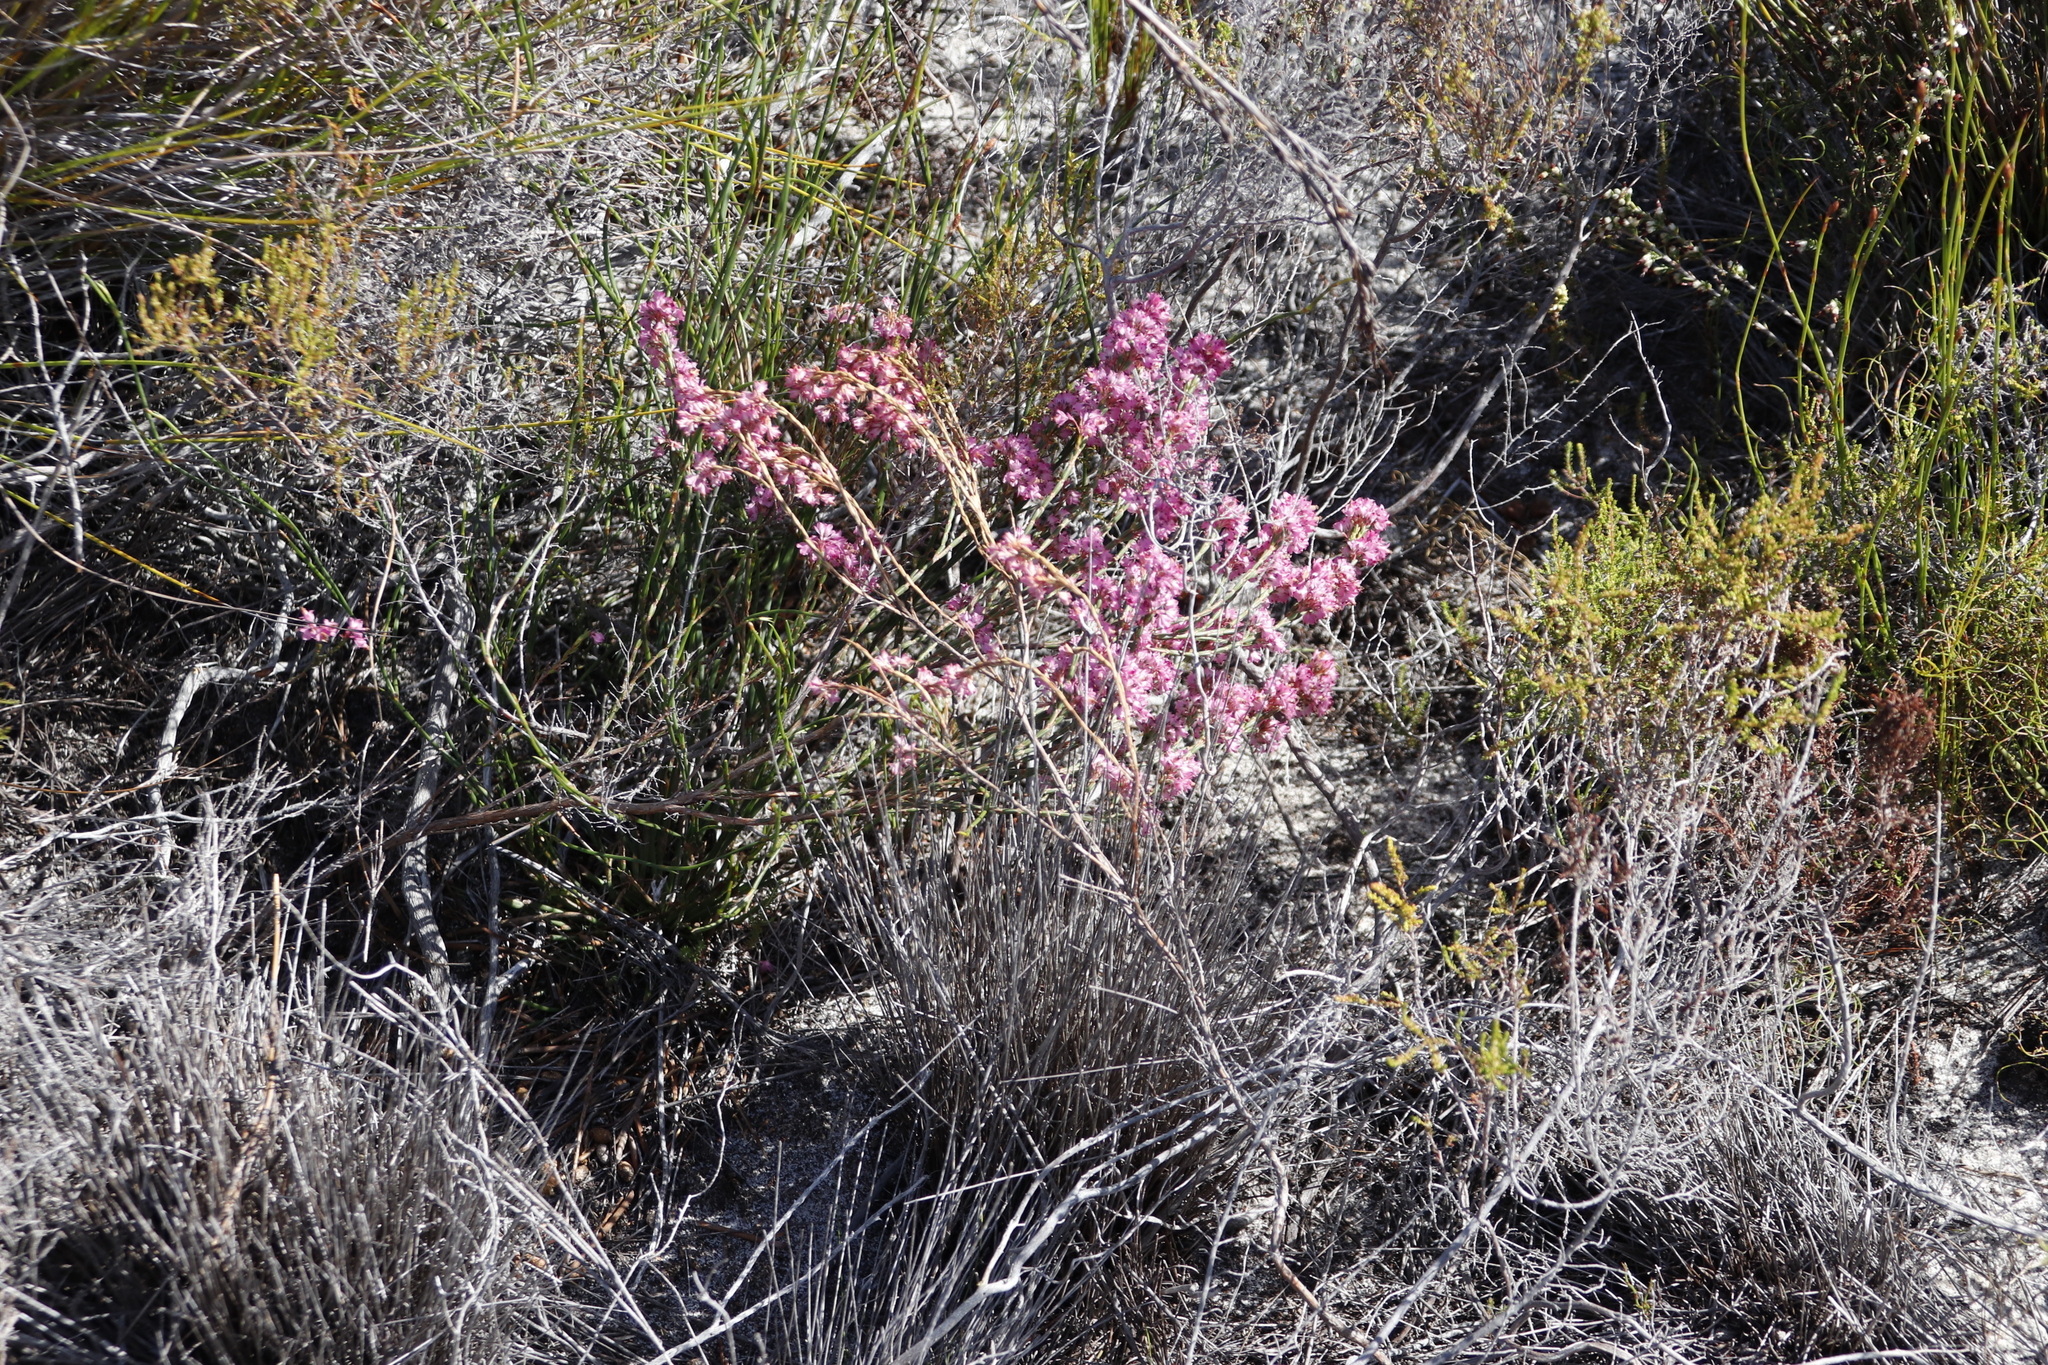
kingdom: Plantae
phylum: Tracheophyta
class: Magnoliopsida
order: Ericales
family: Ericaceae
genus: Erica
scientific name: Erica corifolia
